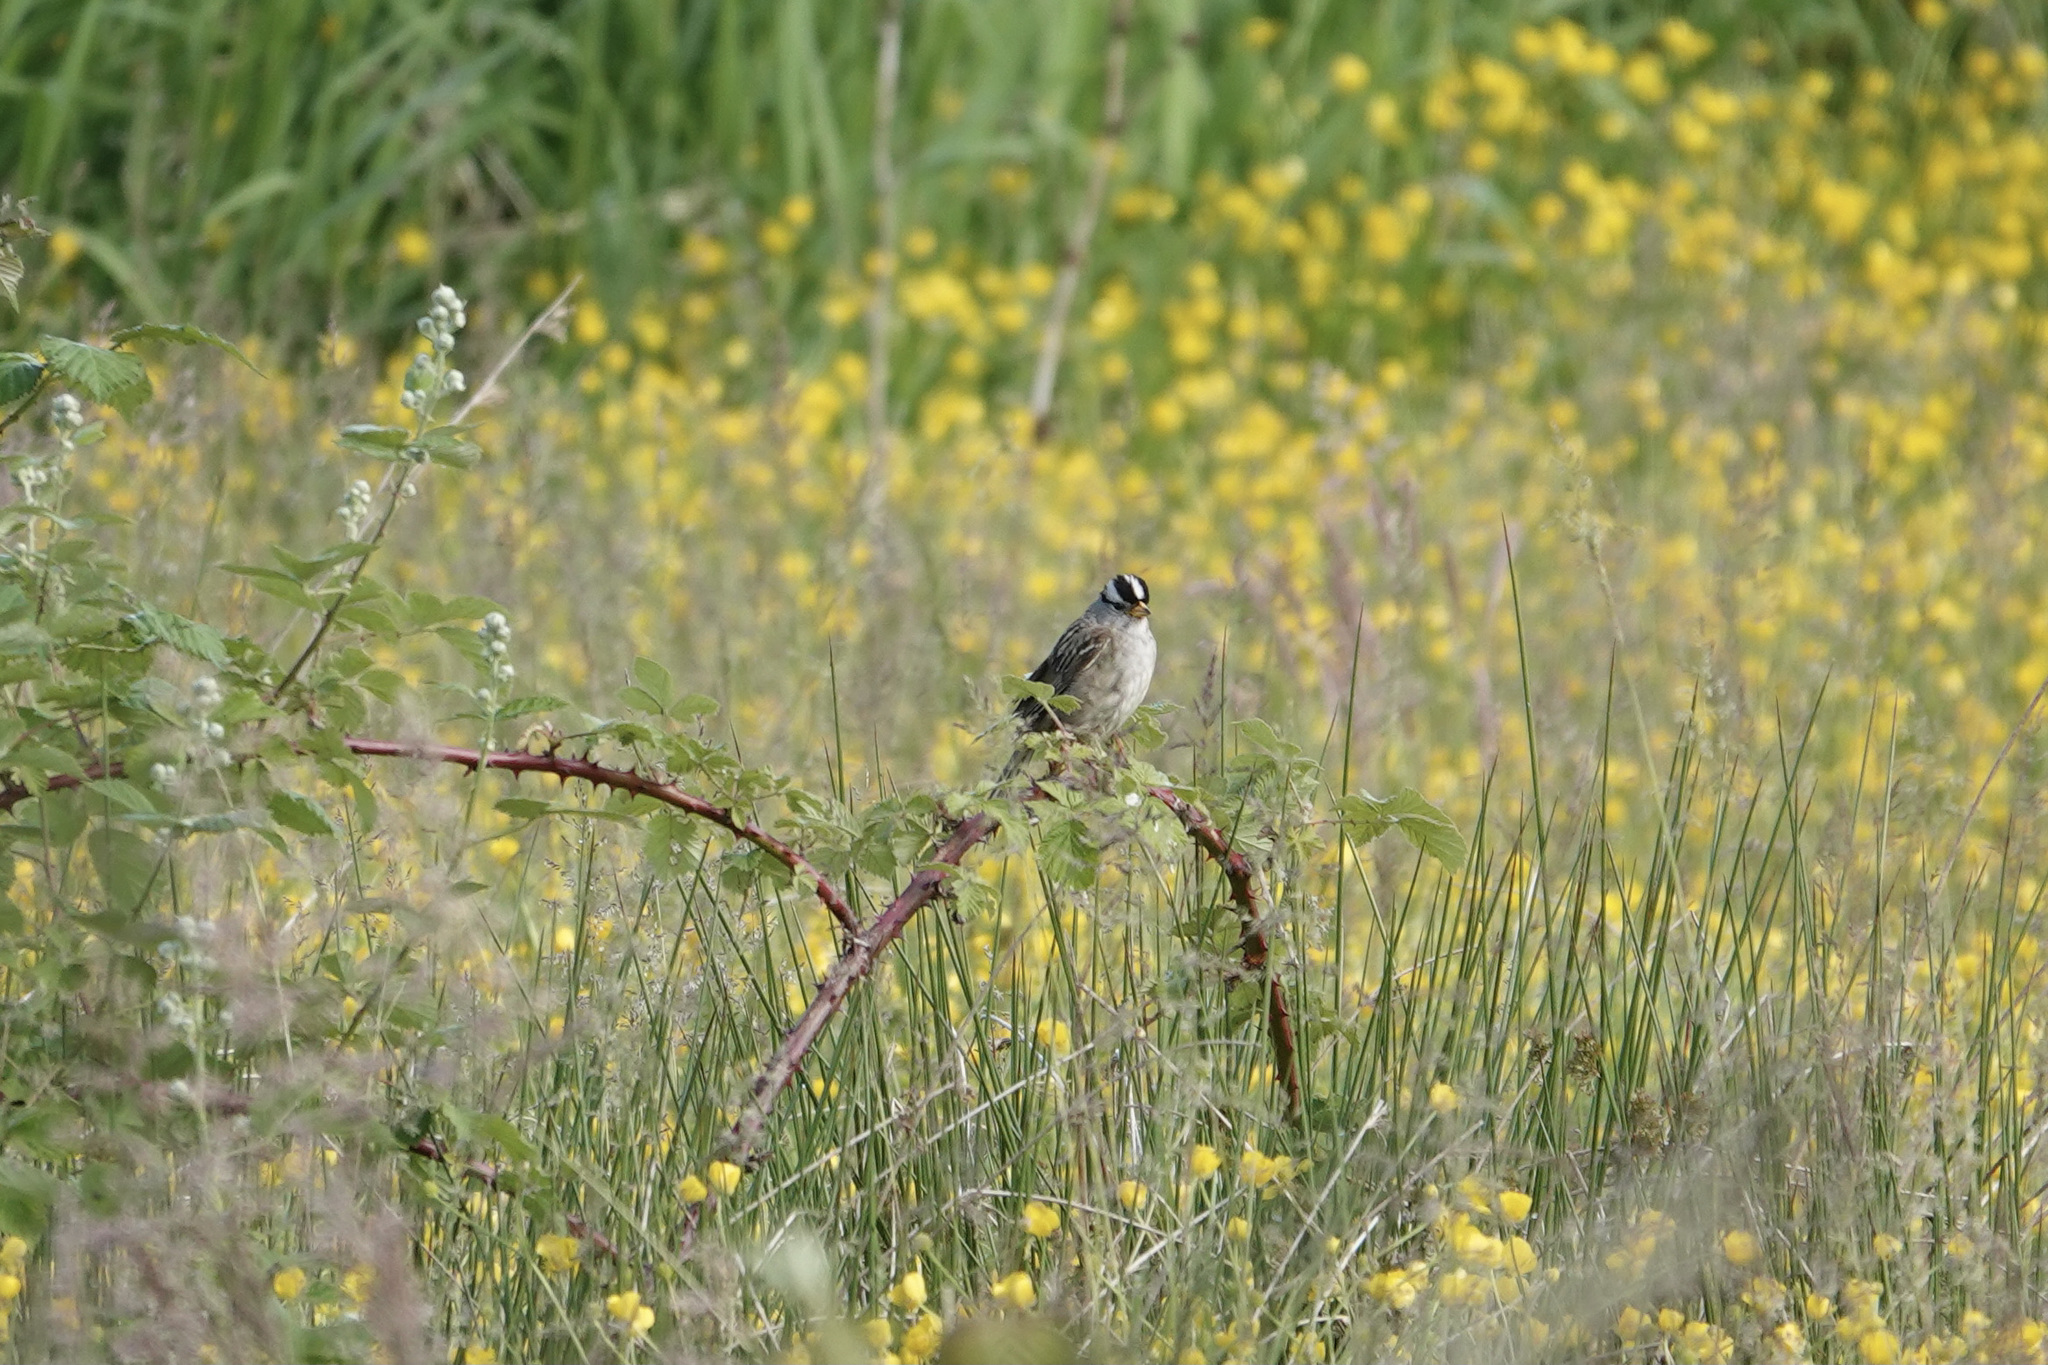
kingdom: Animalia
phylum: Chordata
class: Aves
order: Passeriformes
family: Passerellidae
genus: Zonotrichia
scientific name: Zonotrichia leucophrys
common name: White-crowned sparrow
